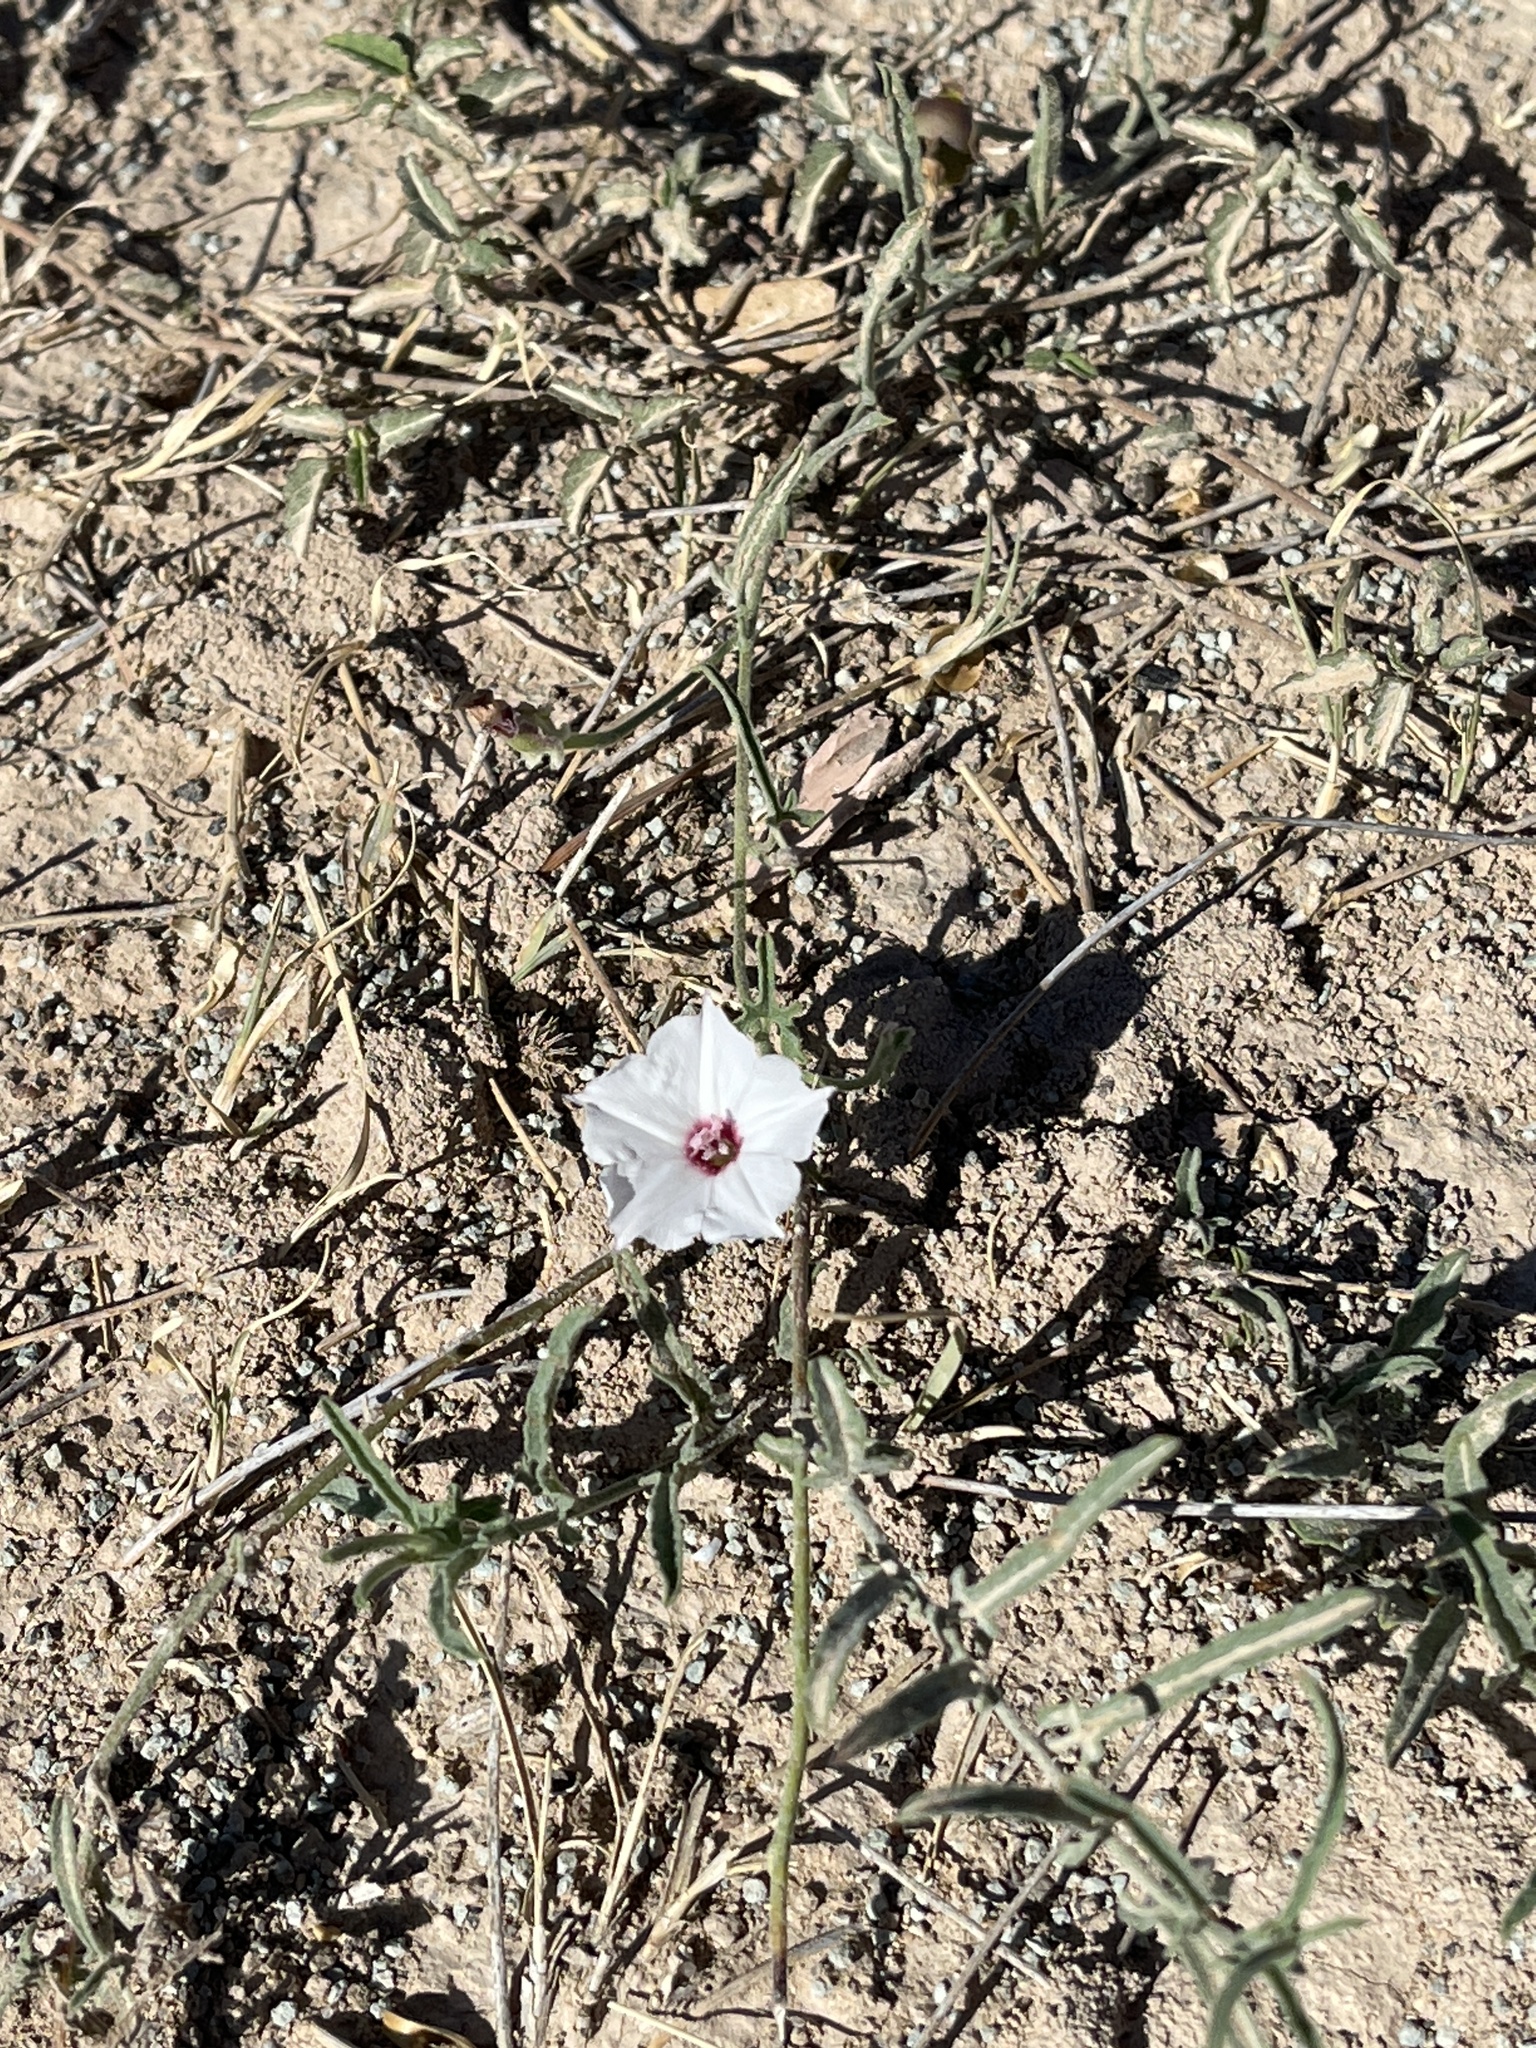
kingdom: Plantae
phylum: Tracheophyta
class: Magnoliopsida
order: Solanales
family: Convolvulaceae
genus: Convolvulus
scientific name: Convolvulus equitans
